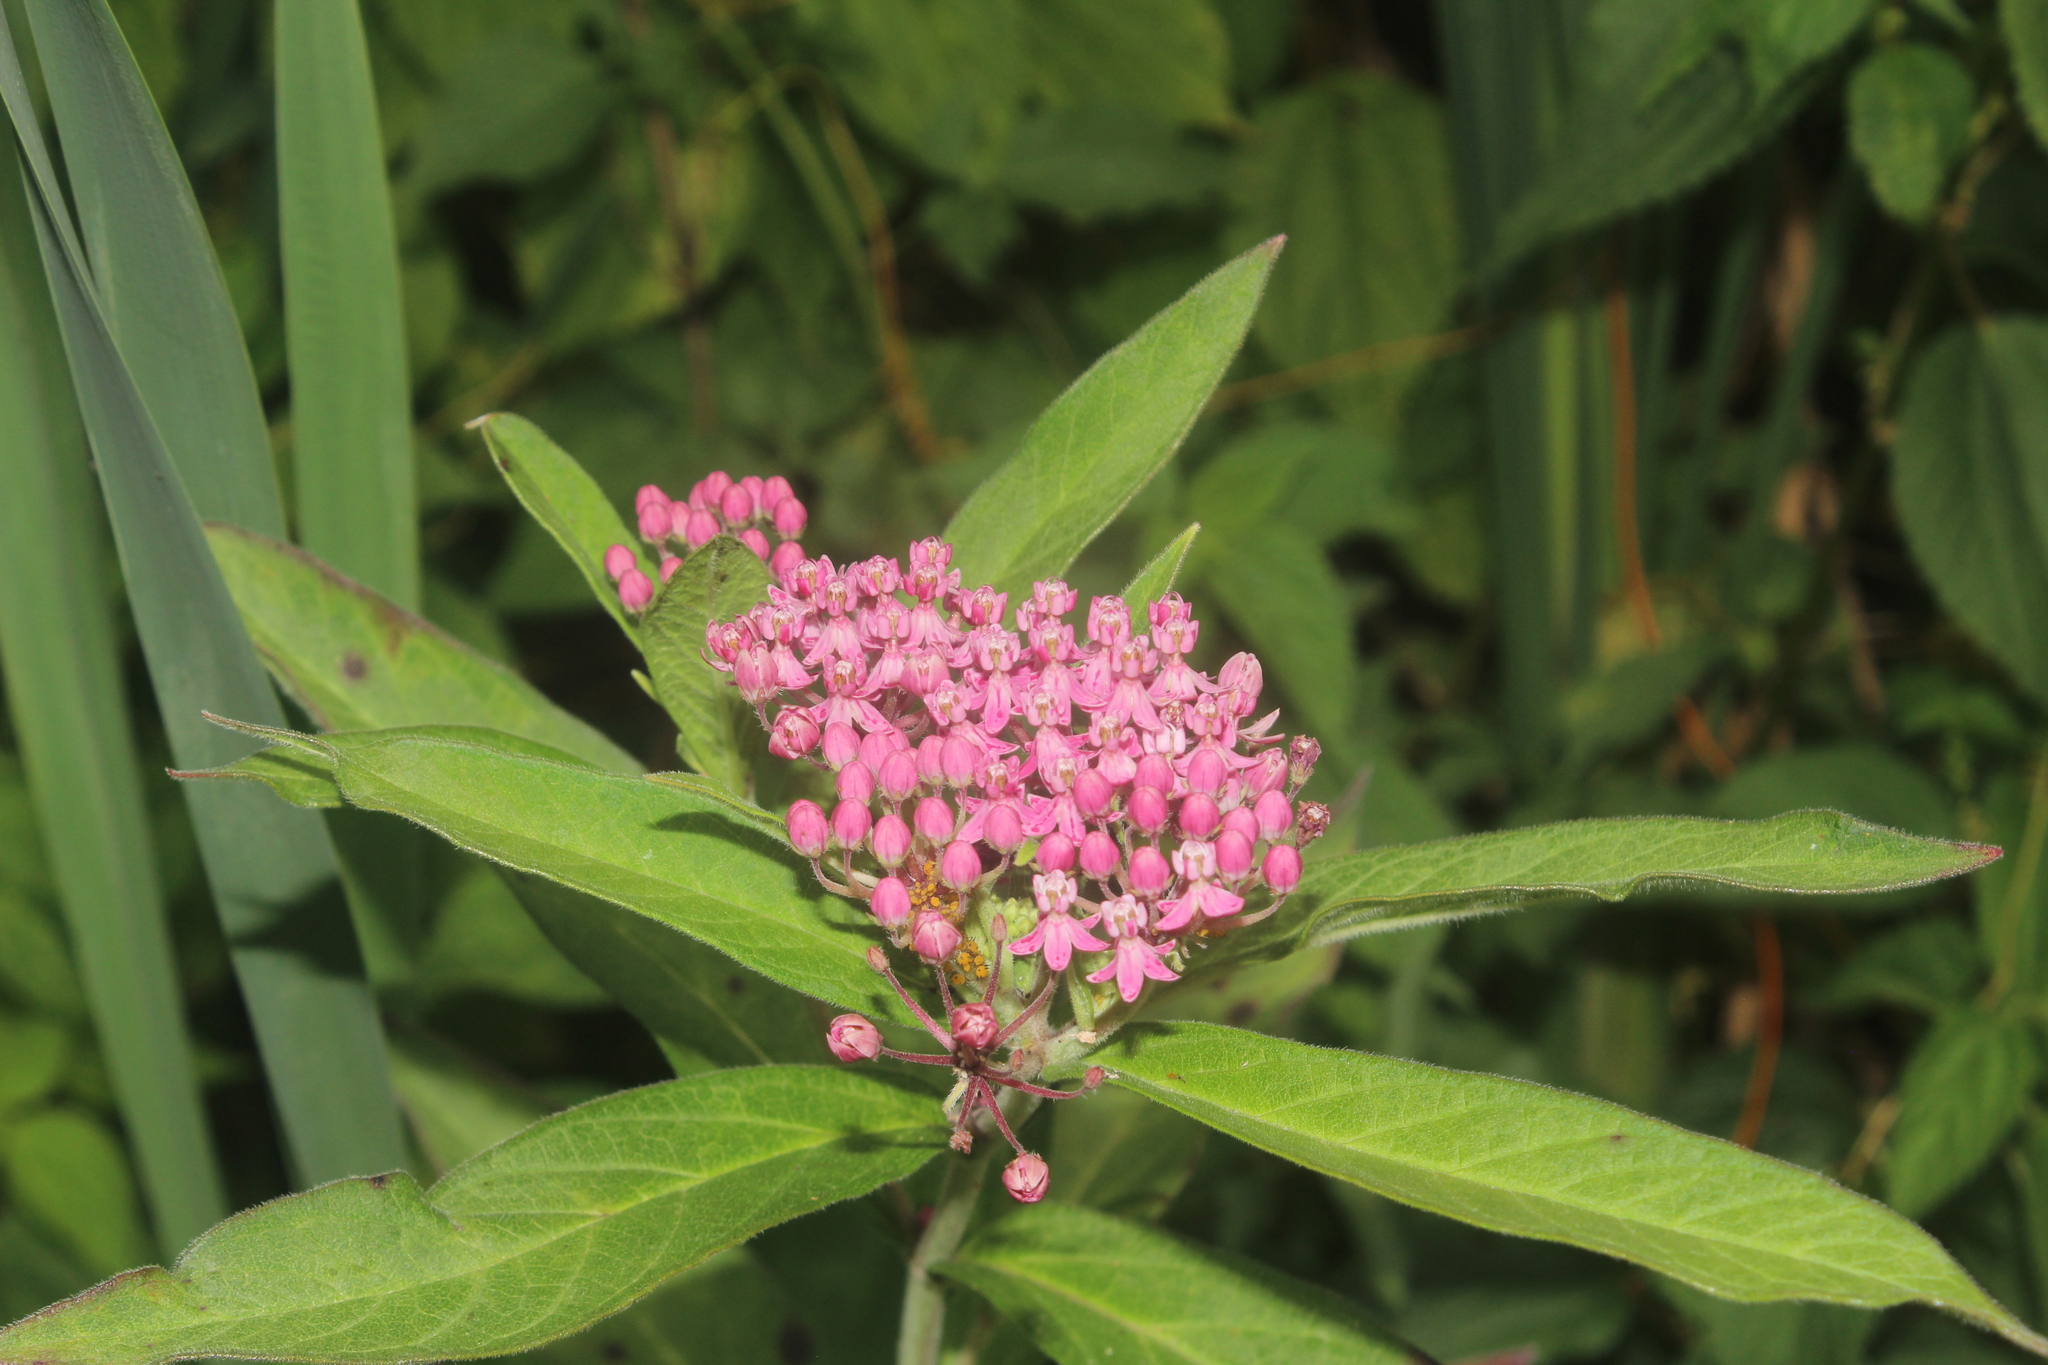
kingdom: Plantae
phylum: Tracheophyta
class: Magnoliopsida
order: Gentianales
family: Apocynaceae
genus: Asclepias
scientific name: Asclepias incarnata
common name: Swamp milkweed
